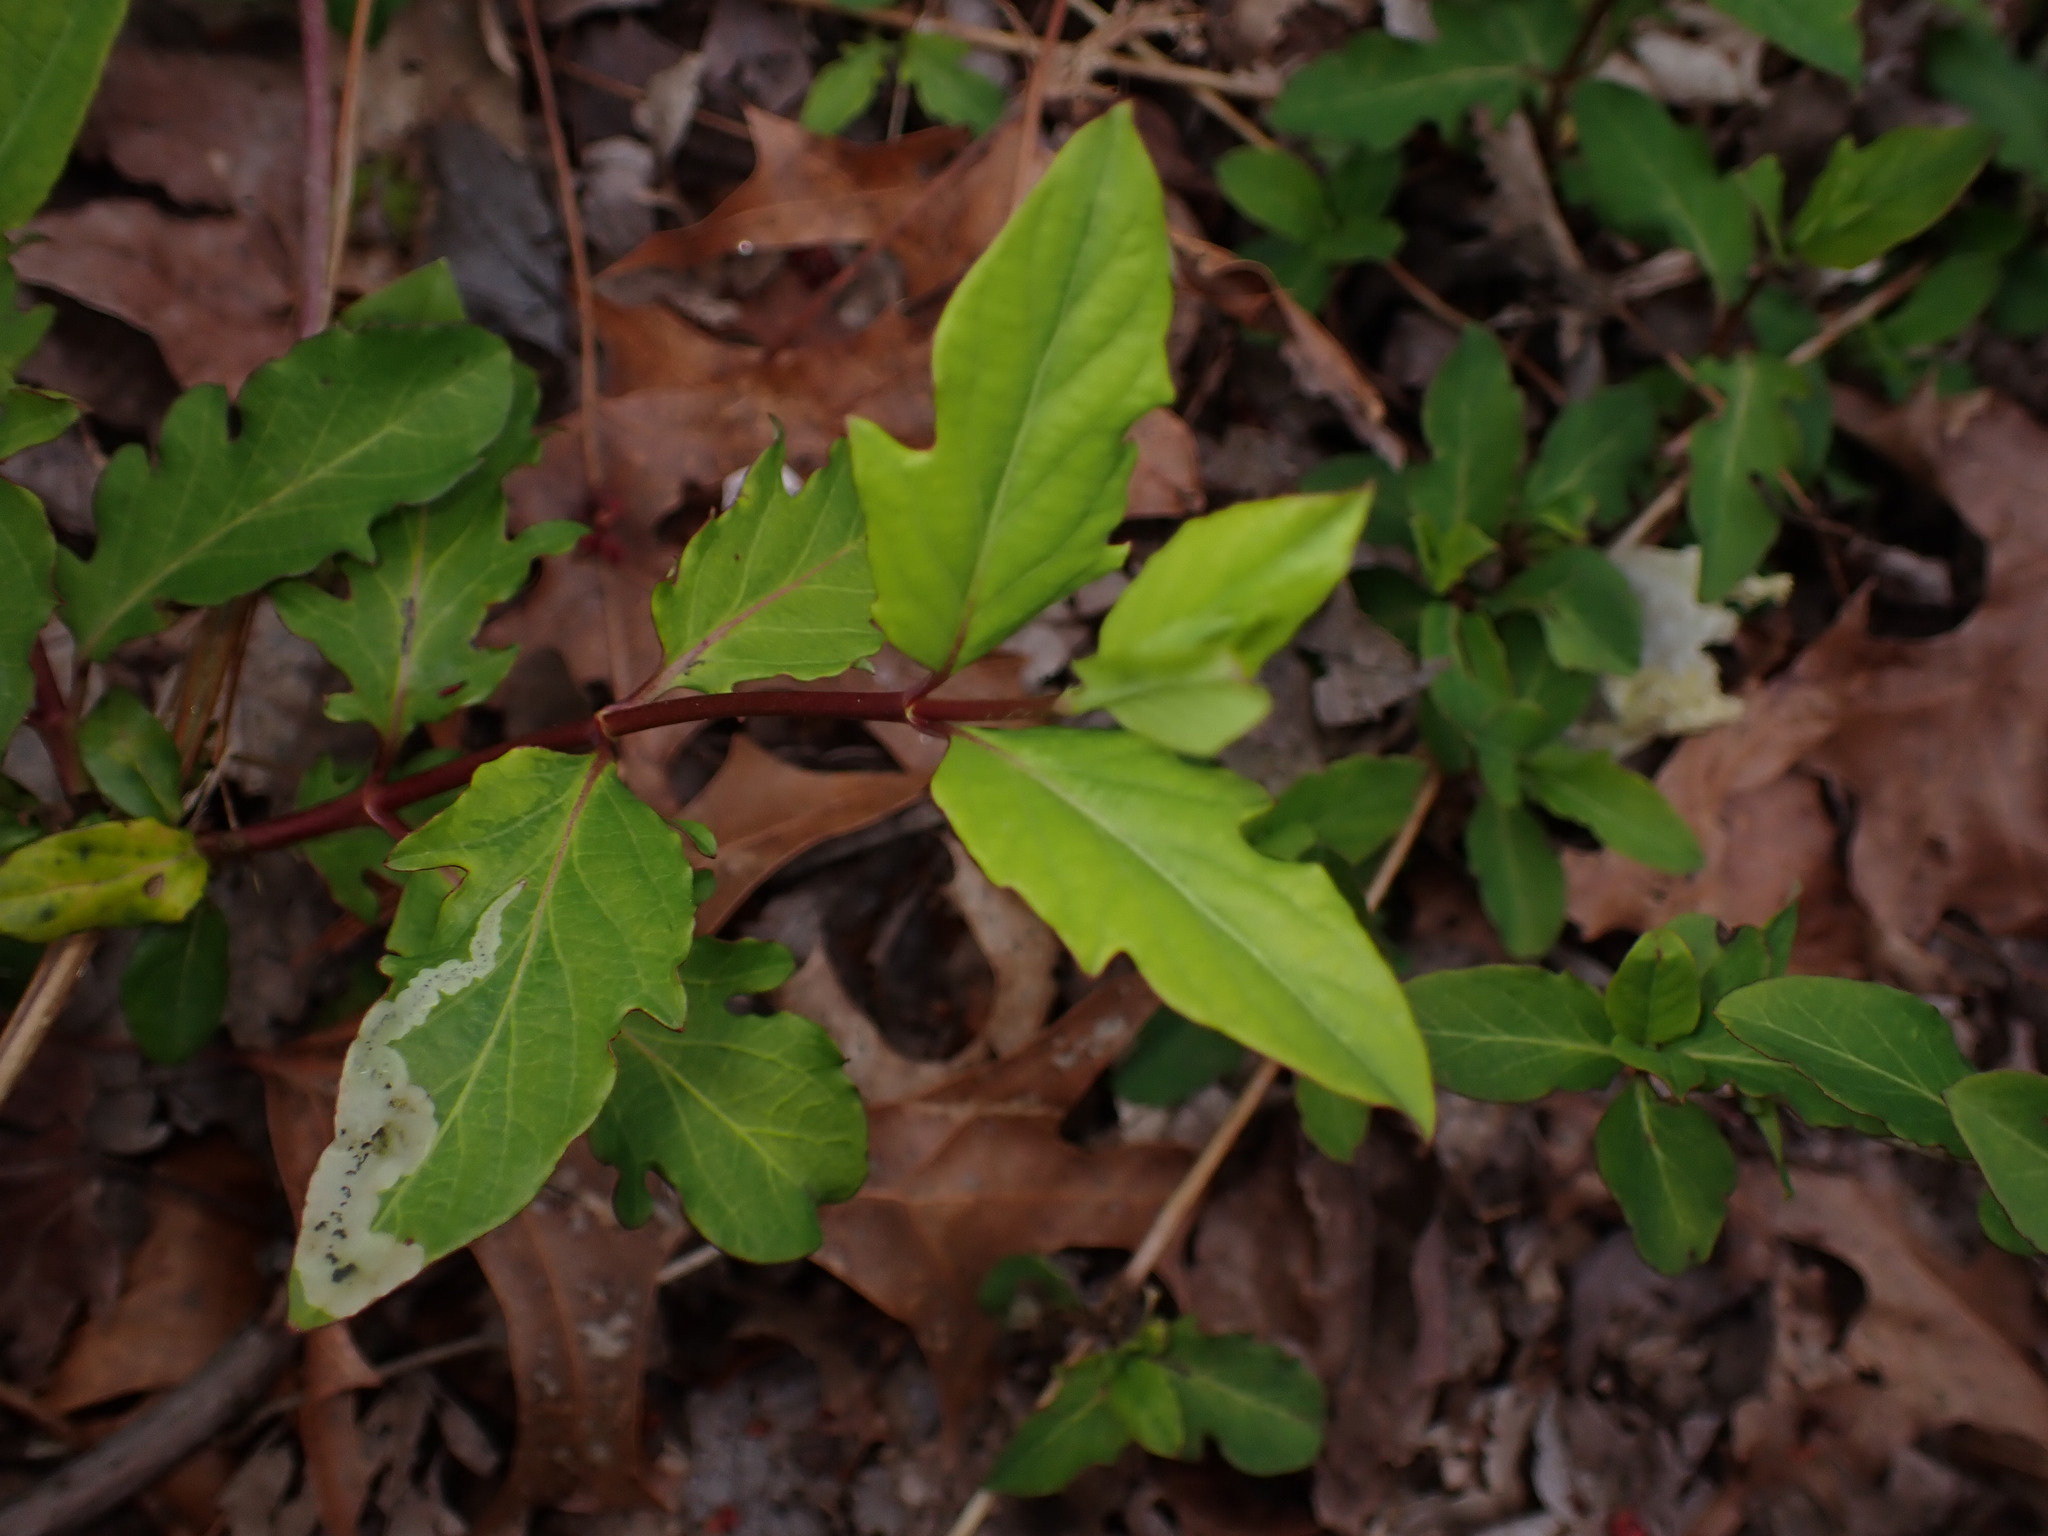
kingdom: Animalia
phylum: Arthropoda
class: Insecta
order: Diptera
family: Agromyzidae
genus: Aulagromyza
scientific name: Aulagromyza cornigera
